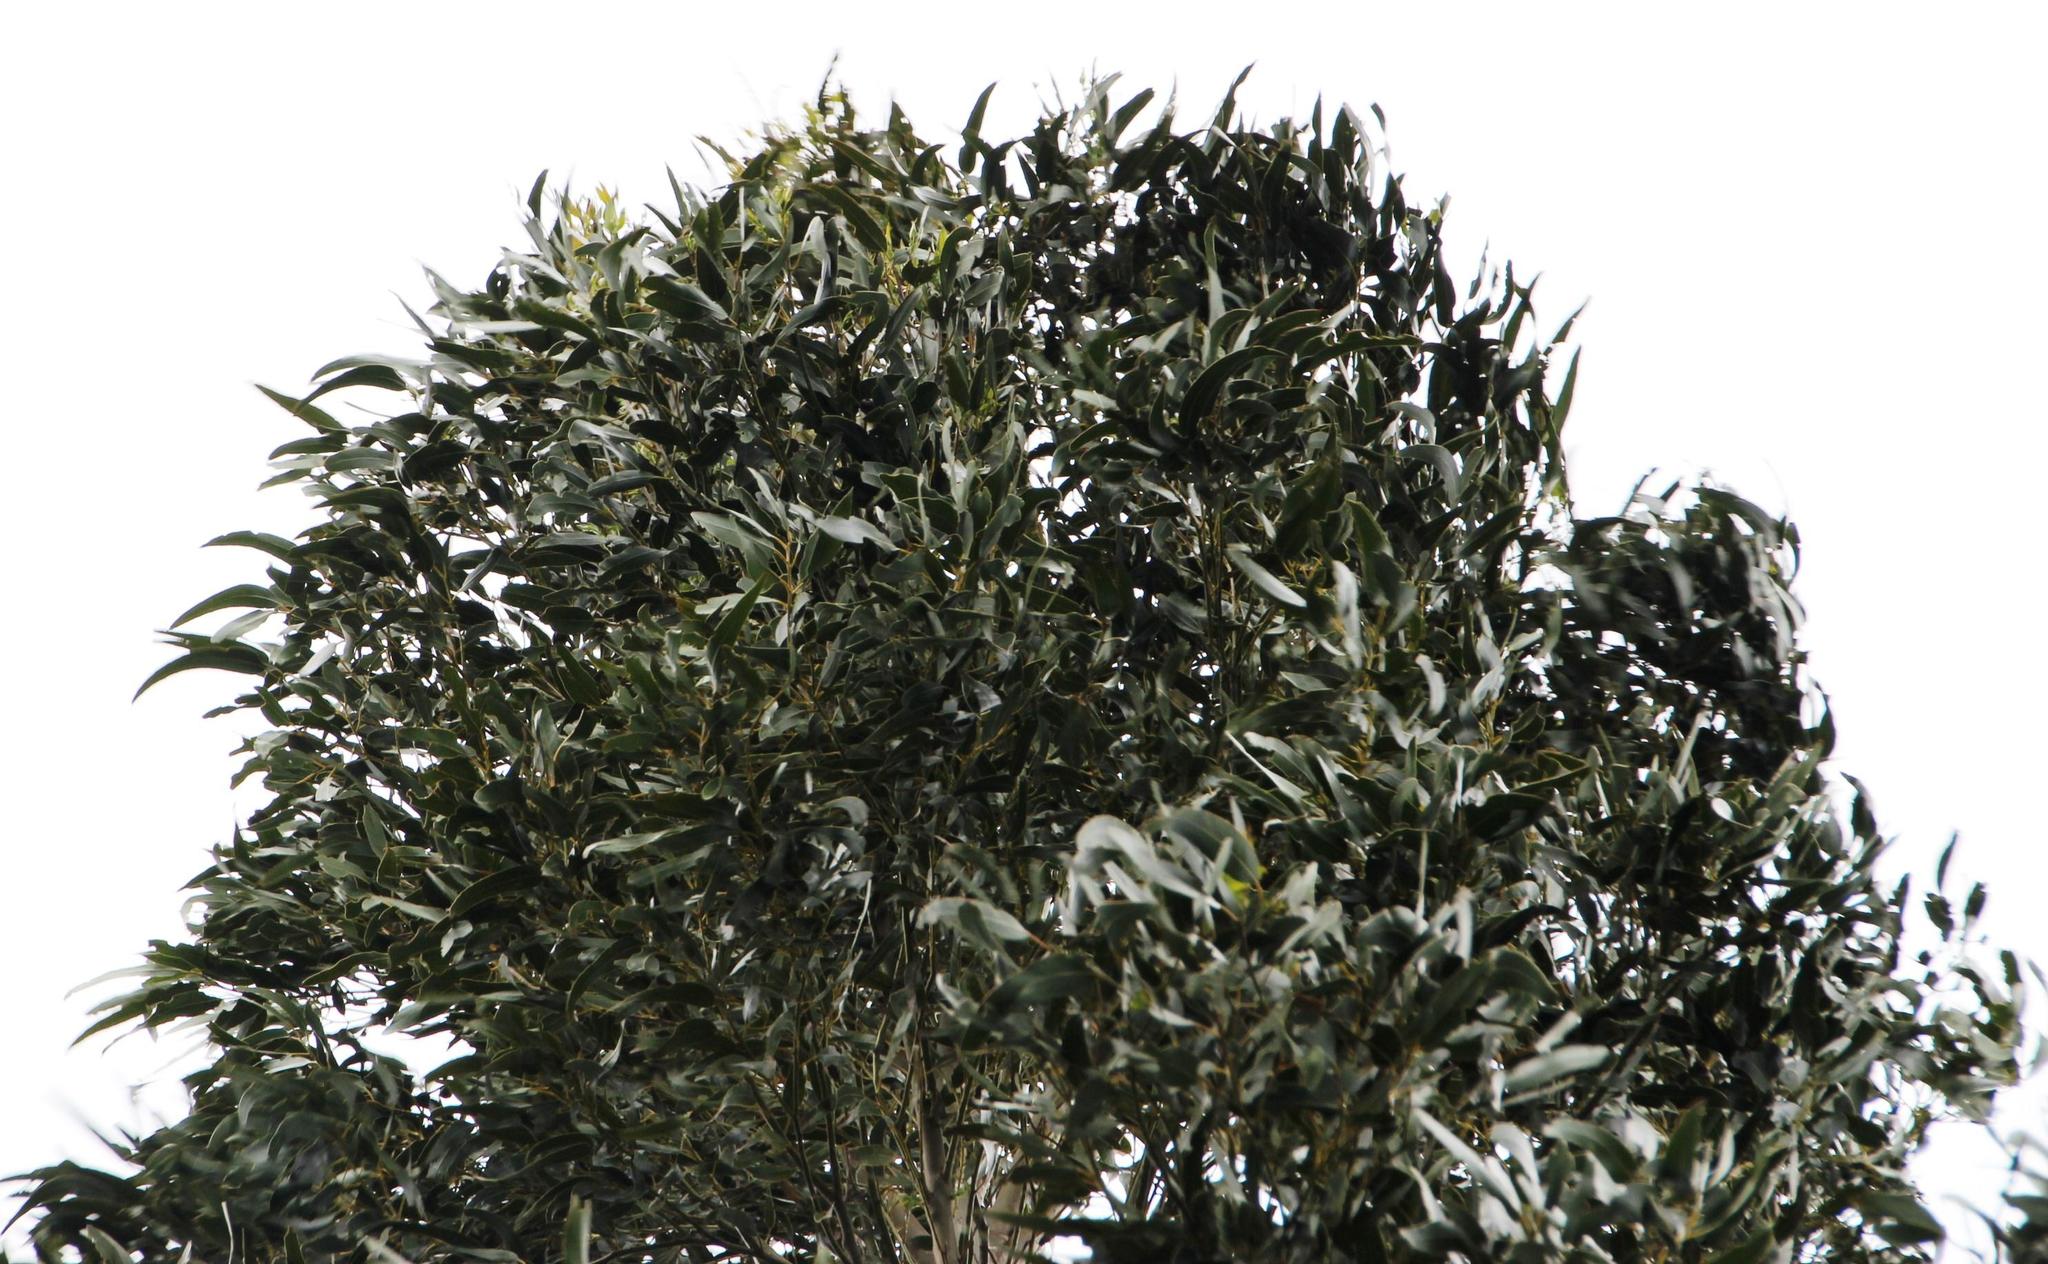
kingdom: Plantae
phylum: Tracheophyta
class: Magnoliopsida
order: Myrtales
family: Myrtaceae
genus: Eucalyptus
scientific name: Eucalyptus globulus
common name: Southern blue-gum
